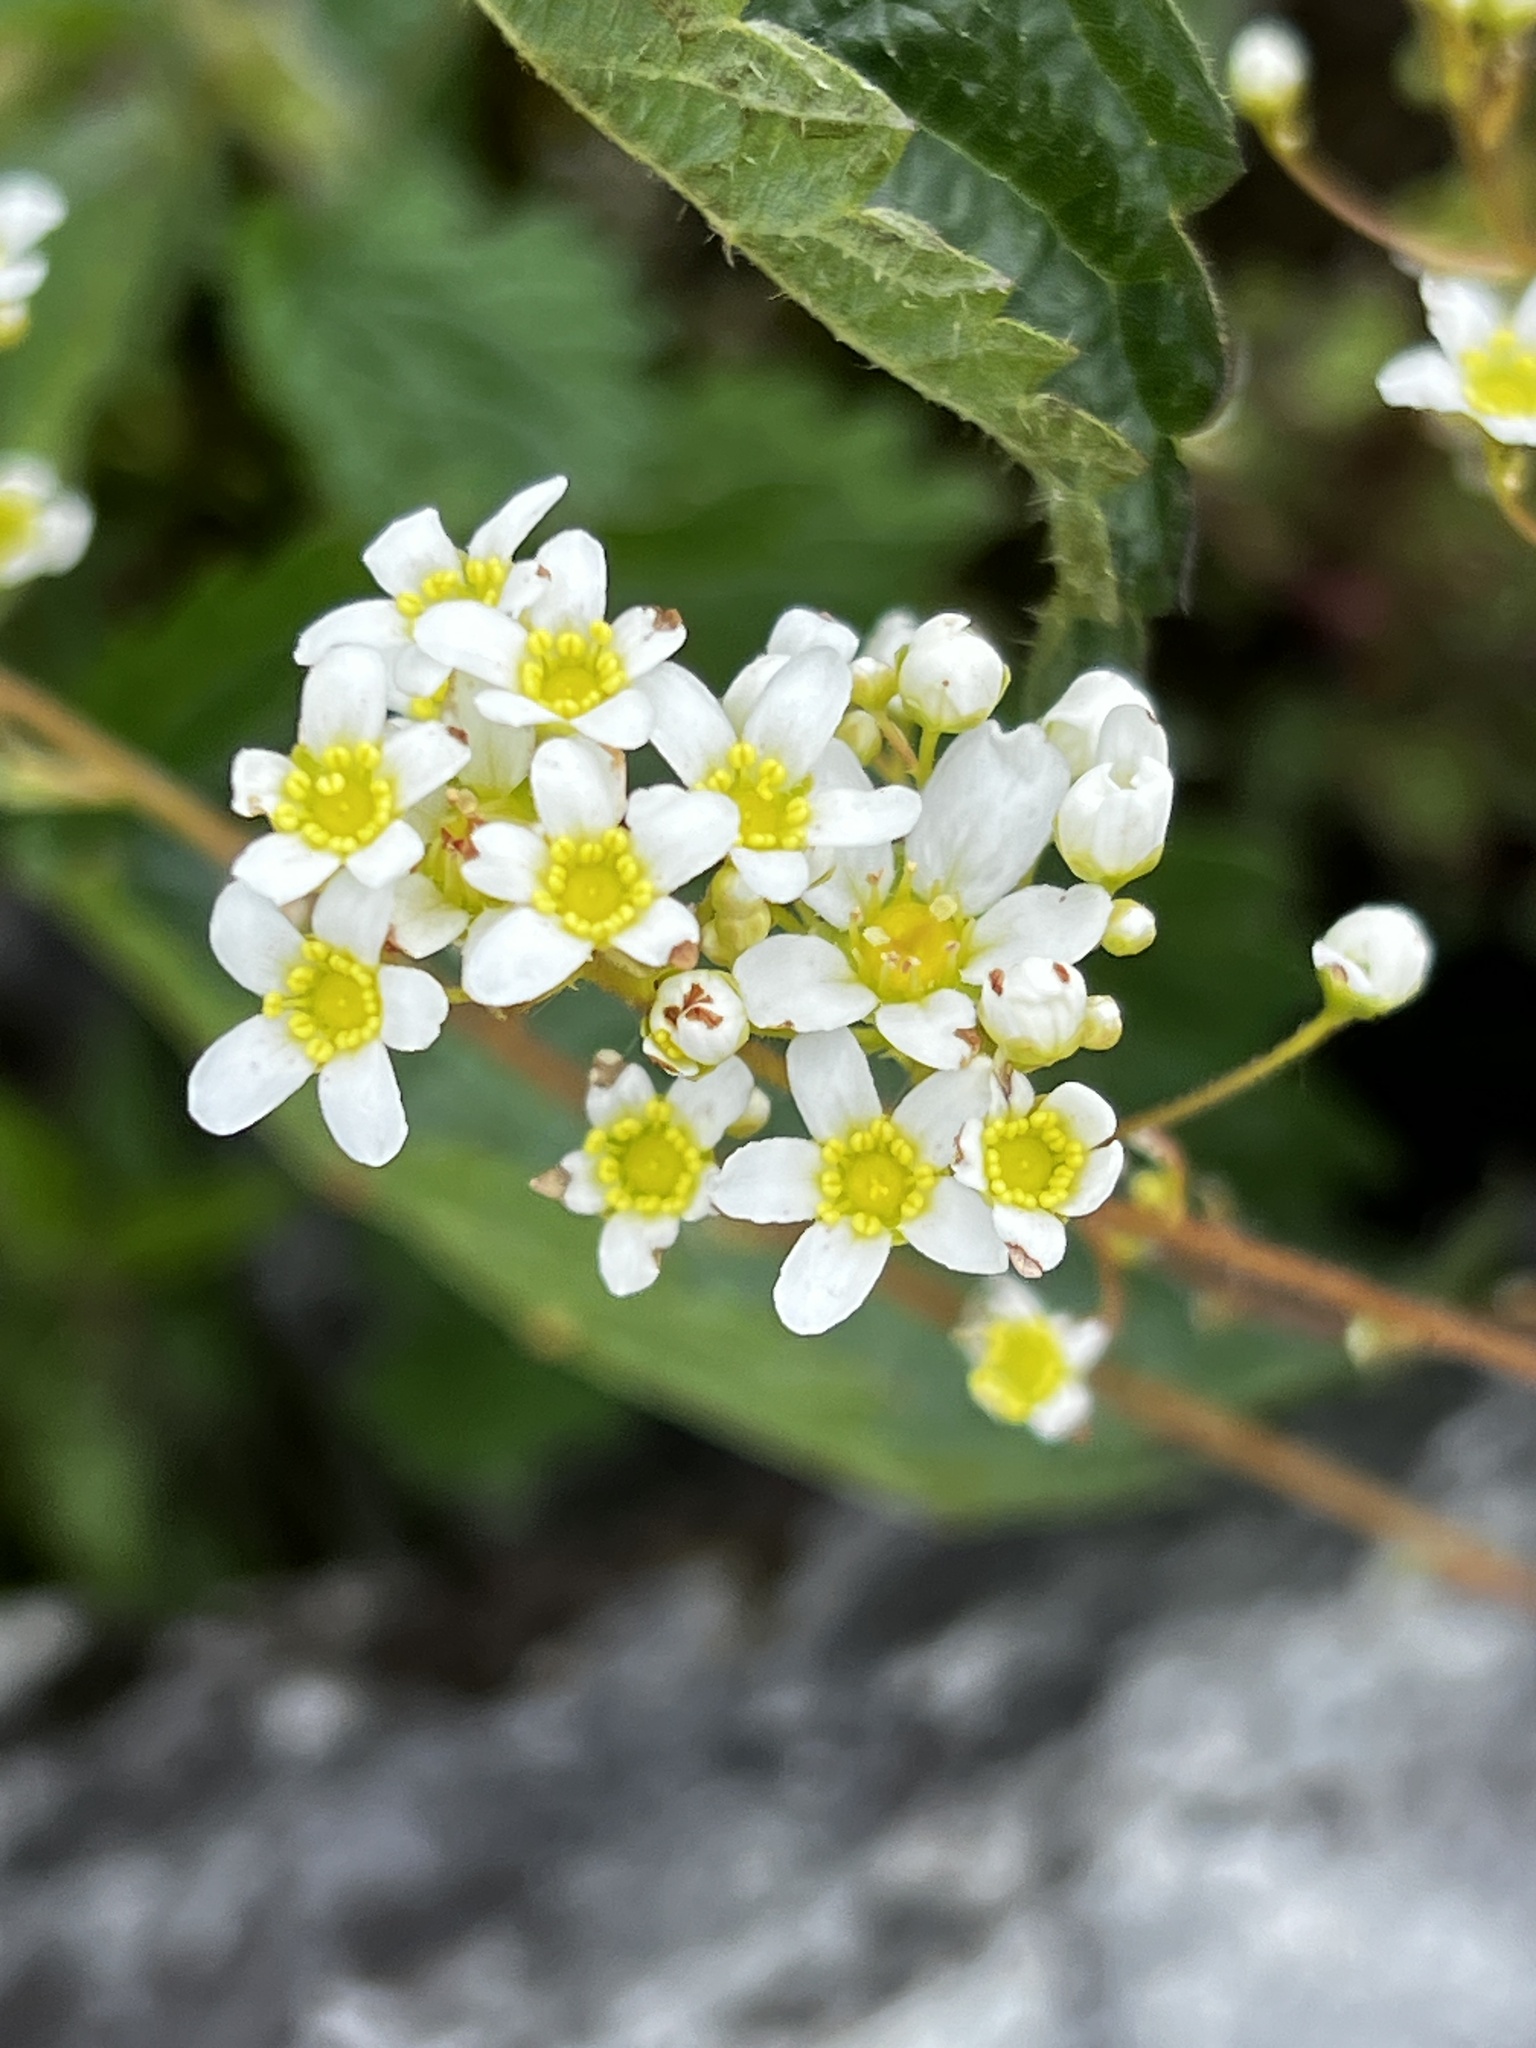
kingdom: Plantae
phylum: Tracheophyta
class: Magnoliopsida
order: Saxifragales
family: Saxifragaceae
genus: Saxifraga
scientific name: Saxifraga paniculata
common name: Livelong saxifrage
